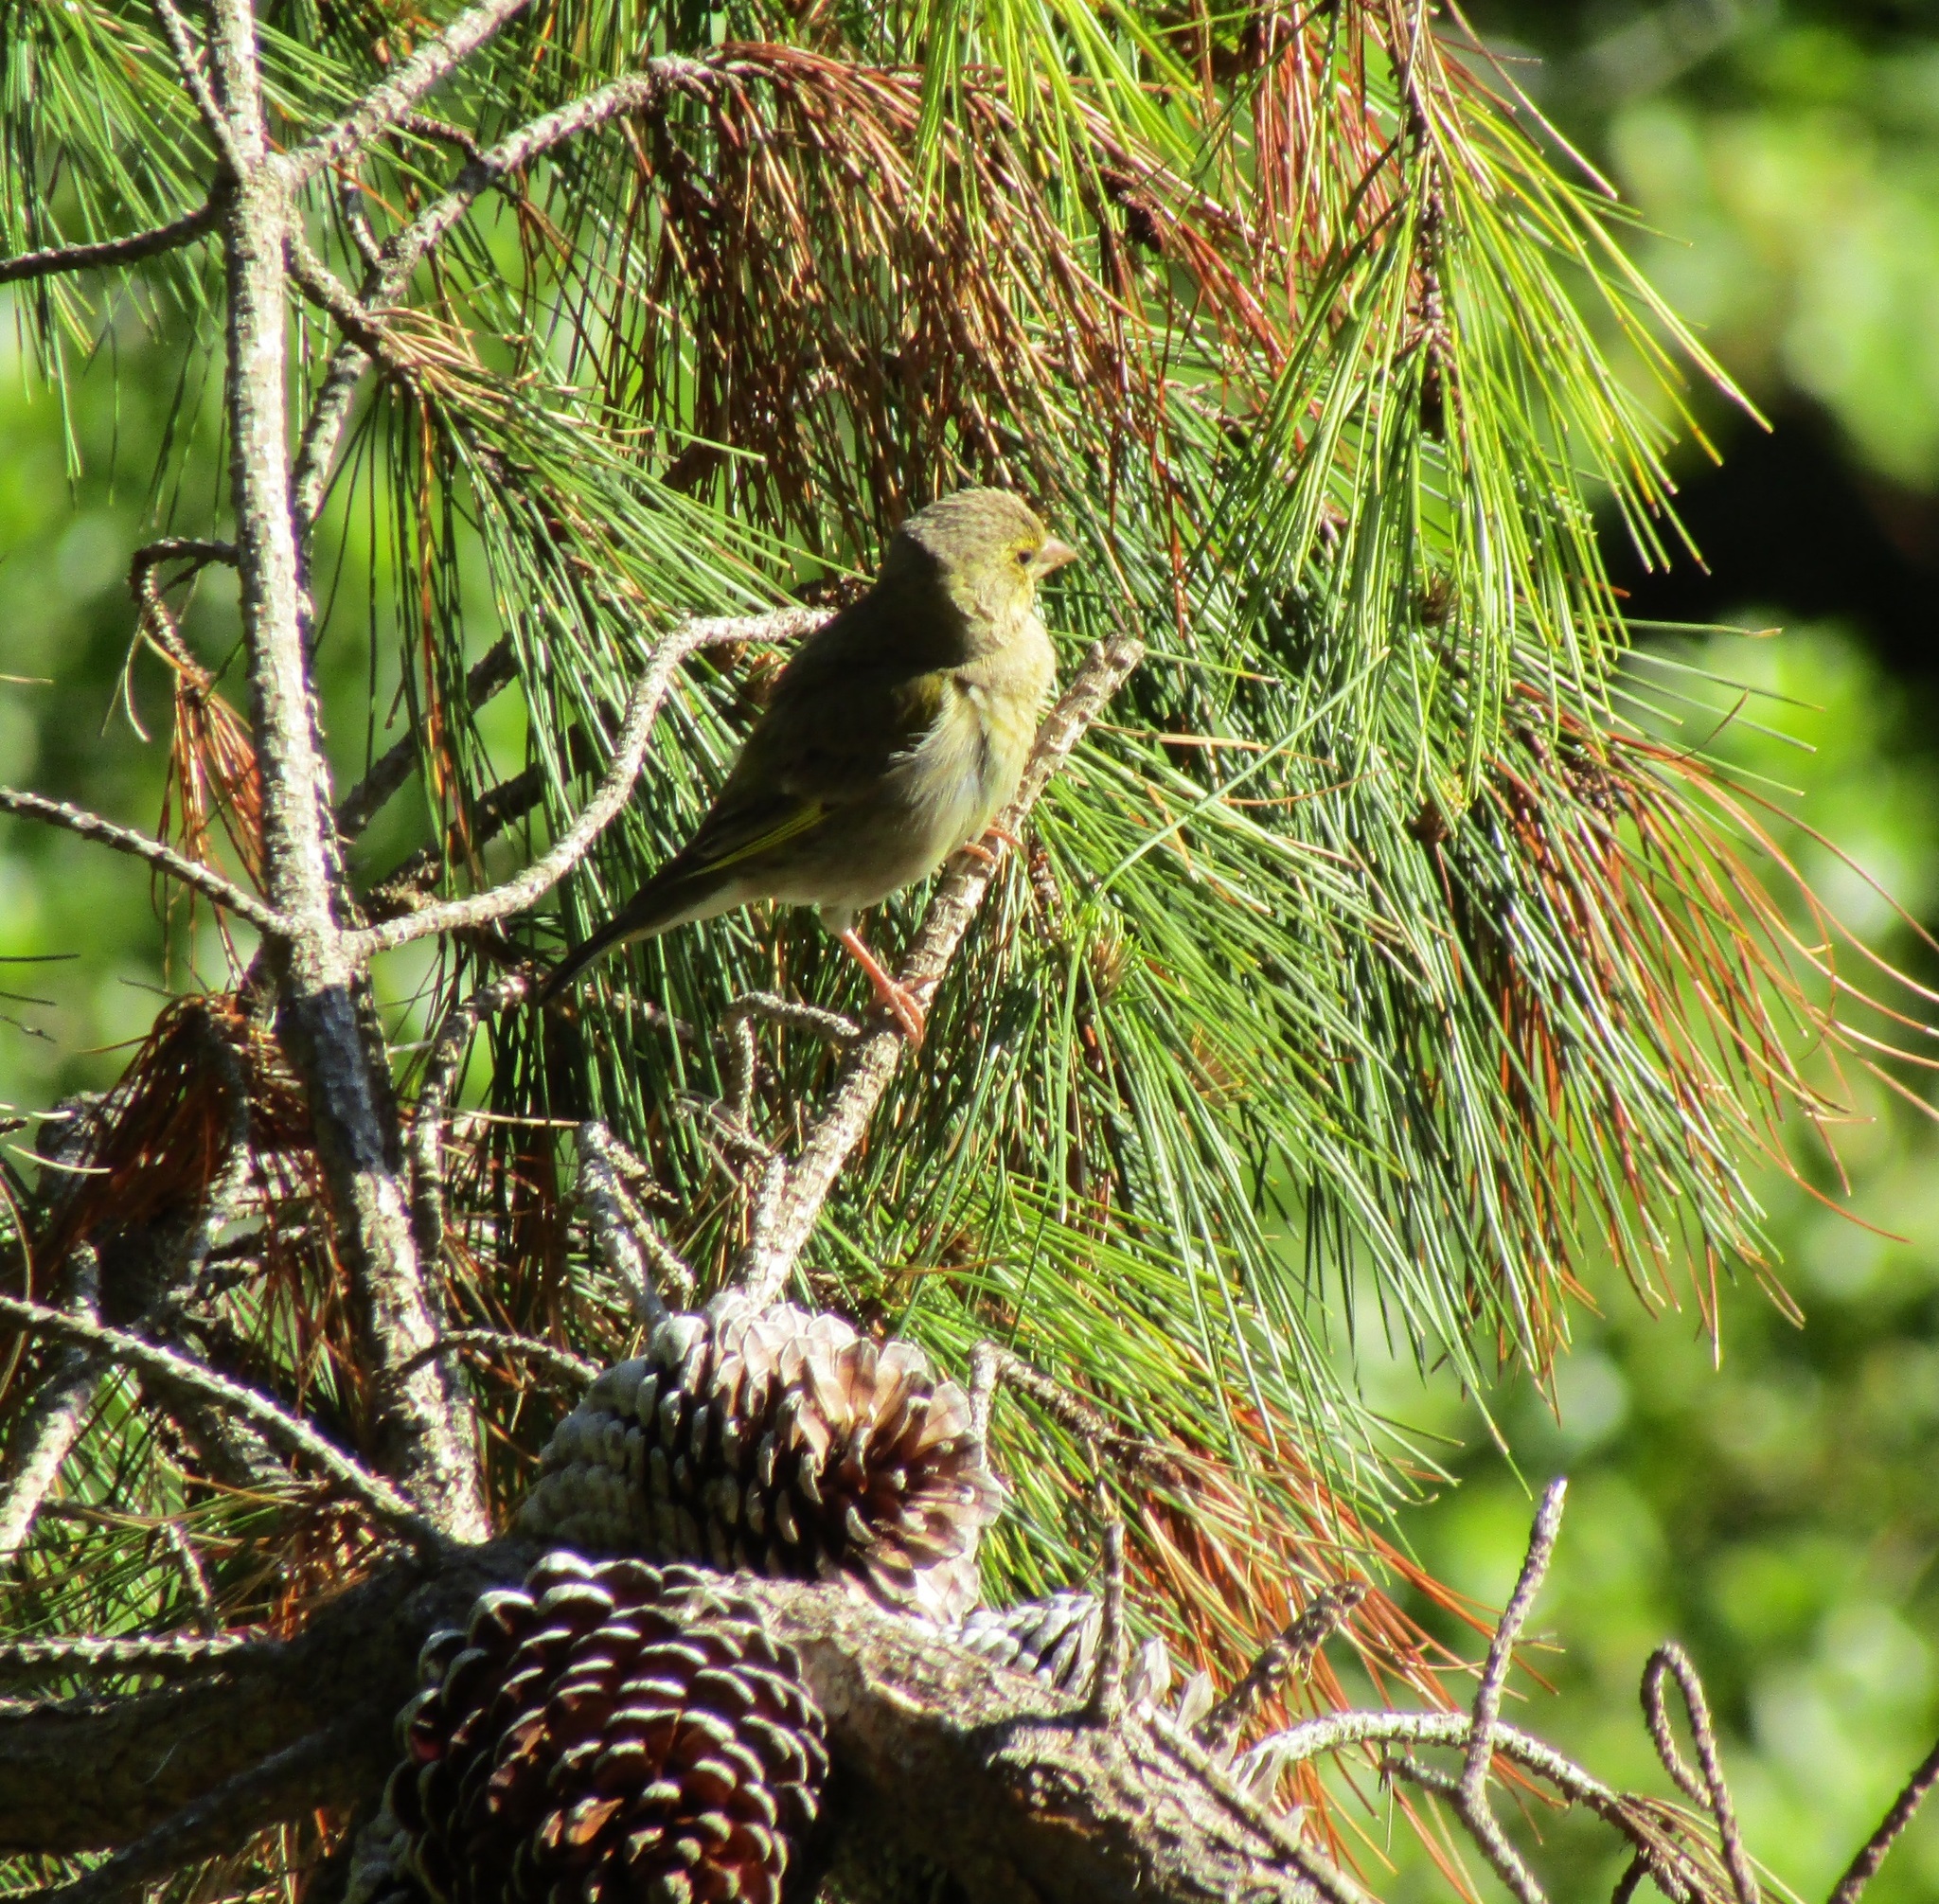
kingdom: Plantae
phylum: Tracheophyta
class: Liliopsida
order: Poales
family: Poaceae
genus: Chloris
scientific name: Chloris chloris
